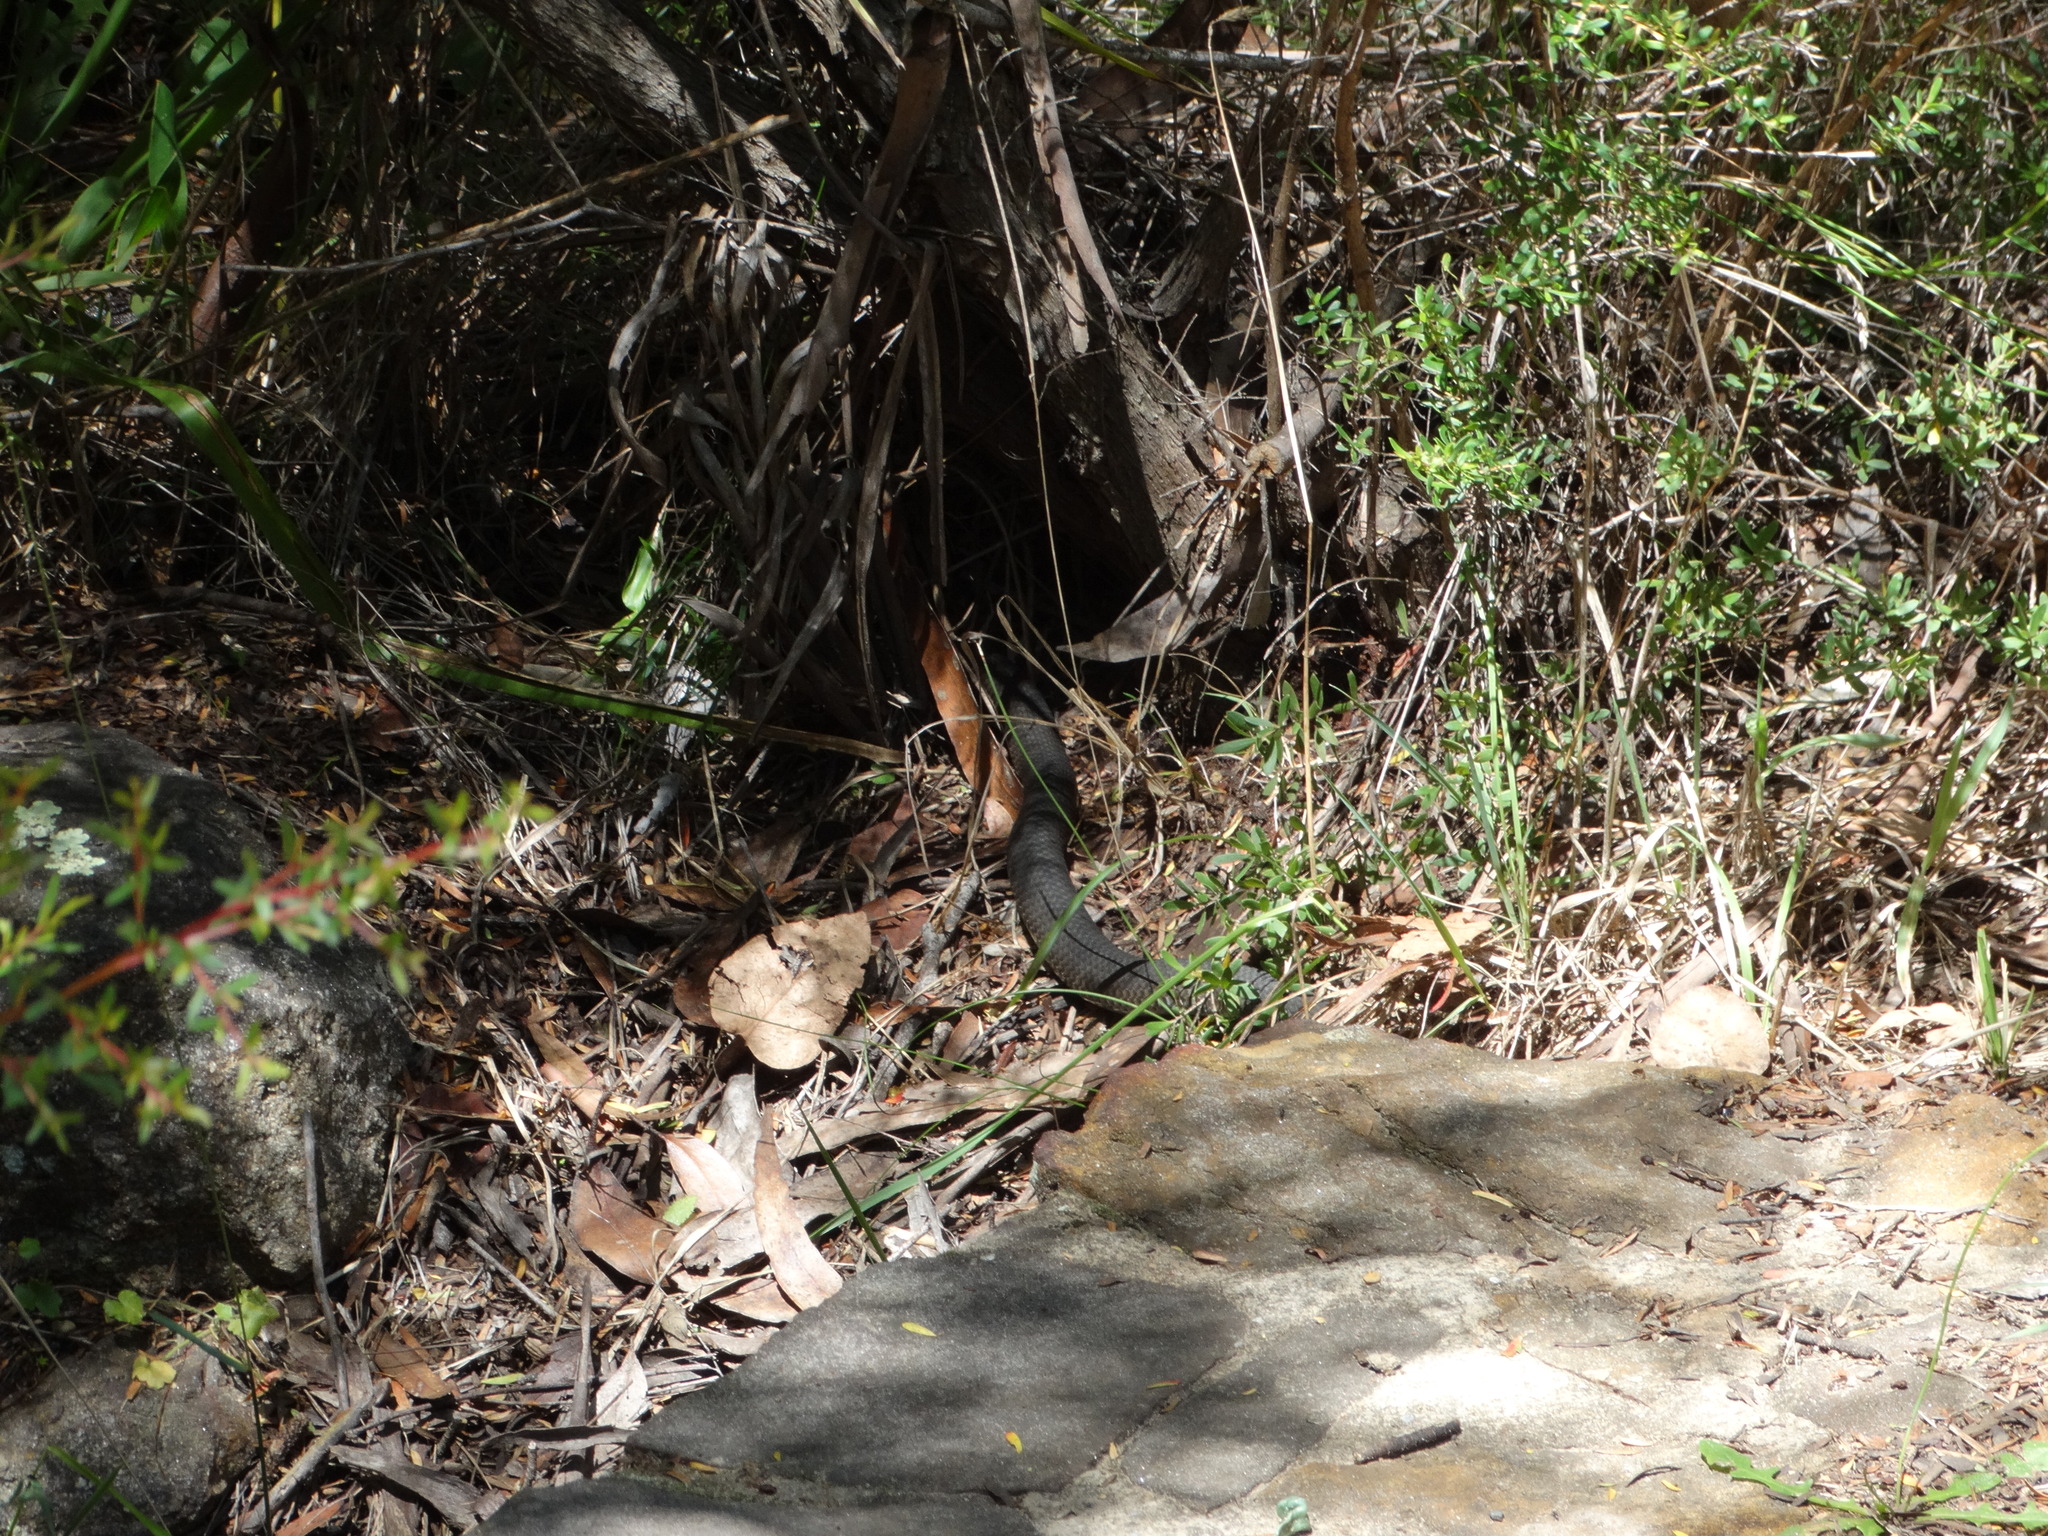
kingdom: Animalia
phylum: Chordata
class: Squamata
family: Elapidae
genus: Austrelaps
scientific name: Austrelaps ramsayi
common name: Highlands copperhead
